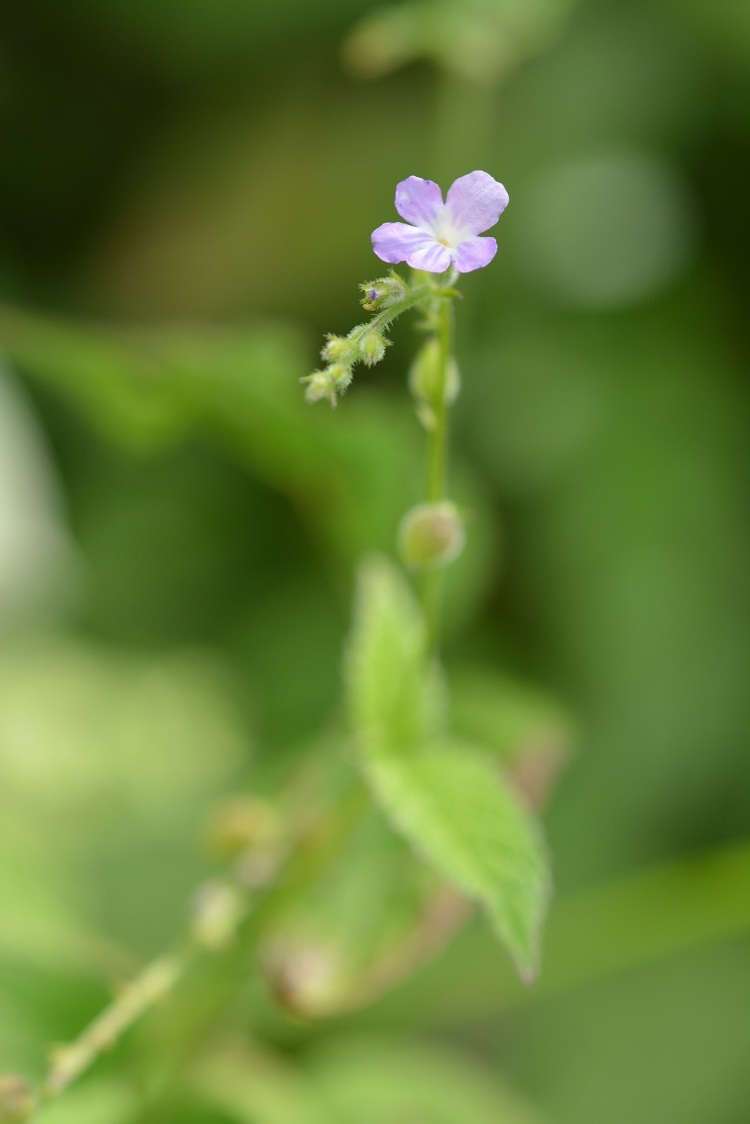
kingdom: Plantae
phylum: Tracheophyta
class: Magnoliopsida
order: Lamiales
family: Verbenaceae
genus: Priva
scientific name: Priva lappulacea
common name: Fasten-'pon-coat
